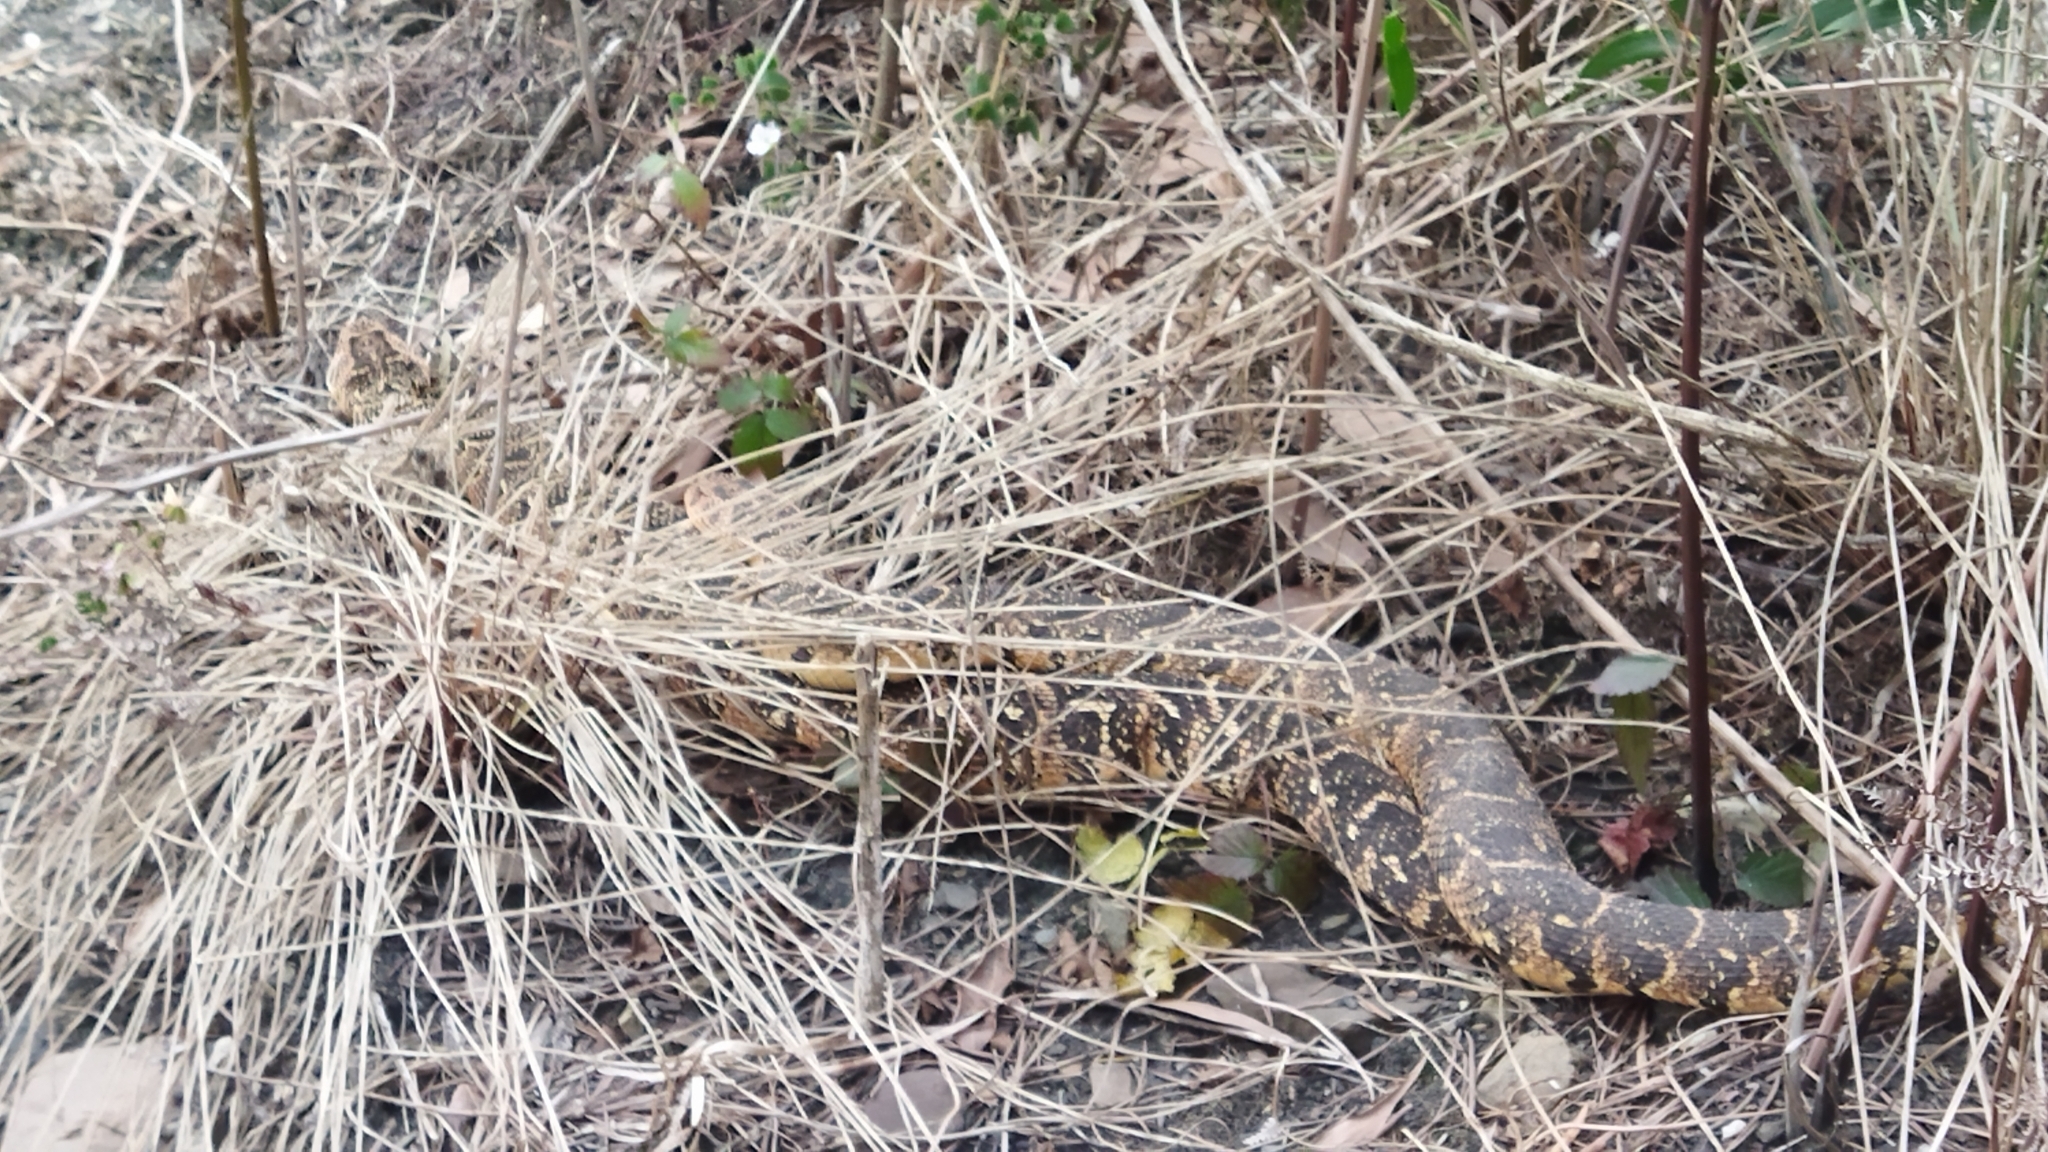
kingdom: Animalia
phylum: Chordata
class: Squamata
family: Viperidae
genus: Bitis
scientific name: Bitis arietans
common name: Puff adder
